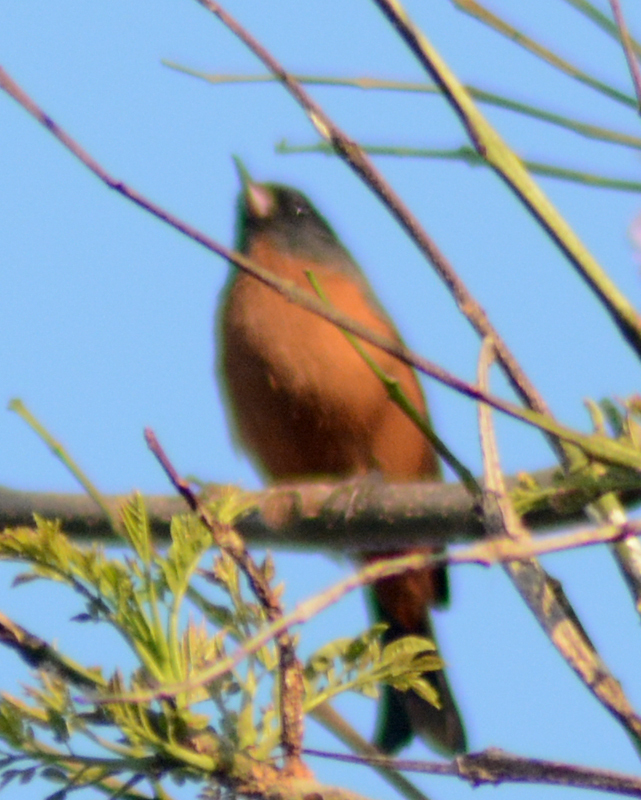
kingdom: Animalia
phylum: Chordata
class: Aves
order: Passeriformes
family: Thraupidae
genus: Diglossa
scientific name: Diglossa baritula
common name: Cinnamon-bellied flowerpiercer
